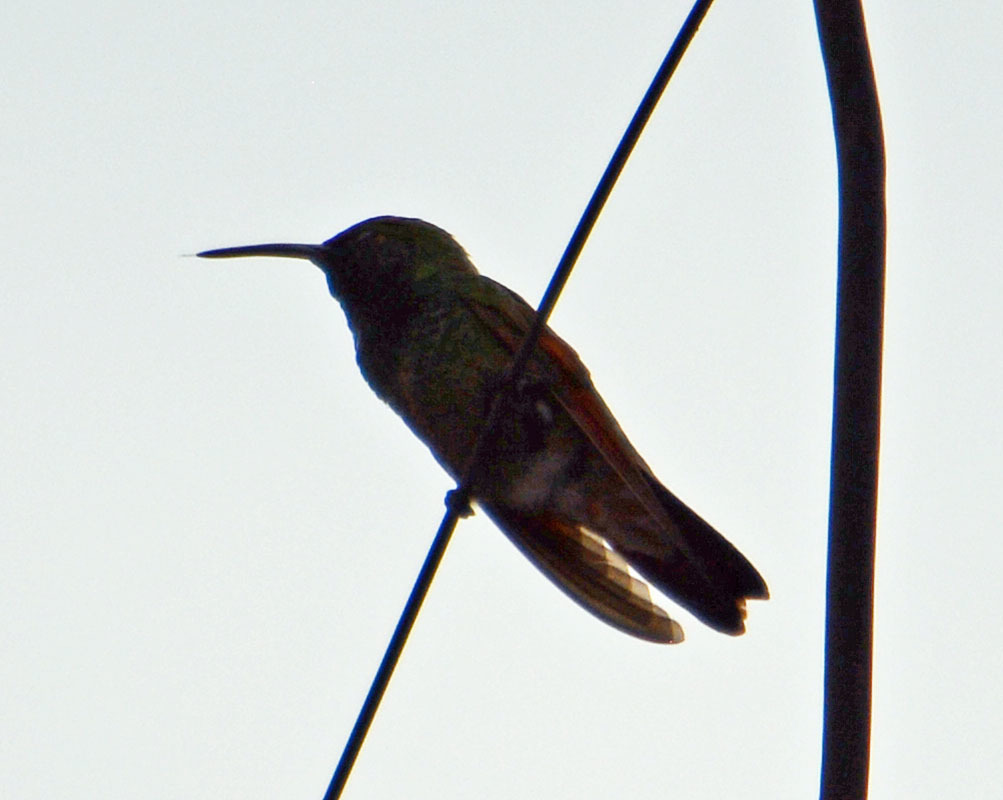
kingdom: Animalia
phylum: Chordata
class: Aves
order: Apodiformes
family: Trochilidae
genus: Saucerottia
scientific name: Saucerottia beryllina
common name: Berylline hummingbird
